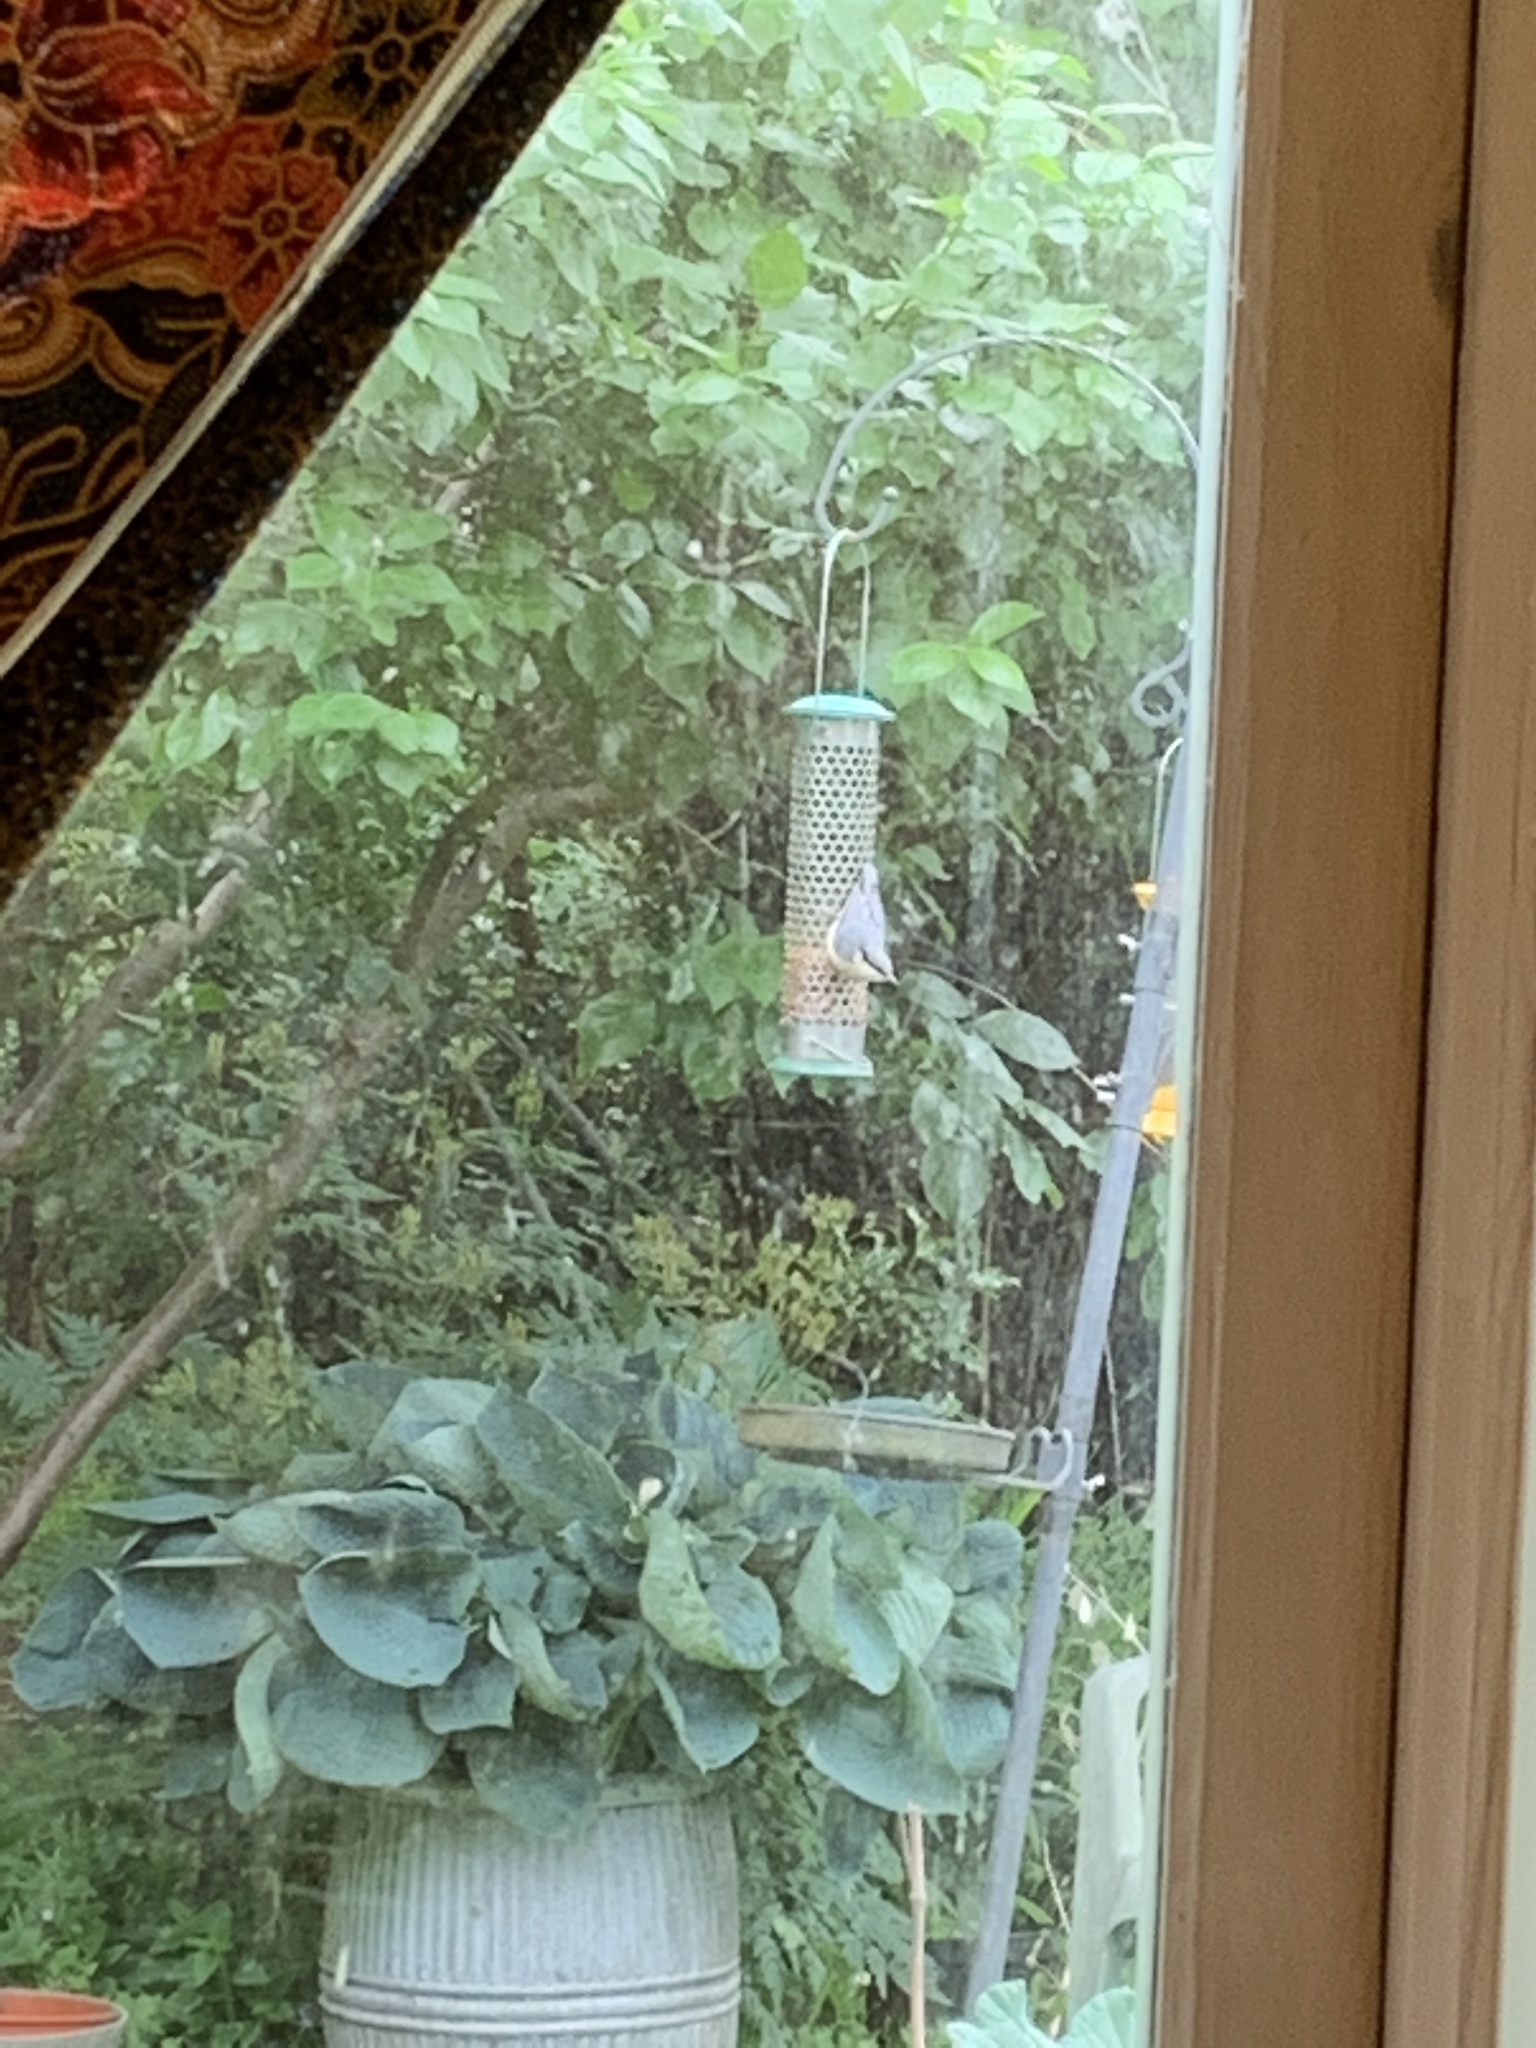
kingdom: Animalia
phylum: Chordata
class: Aves
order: Passeriformes
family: Sittidae
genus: Sitta
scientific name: Sitta europaea
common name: Eurasian nuthatch
